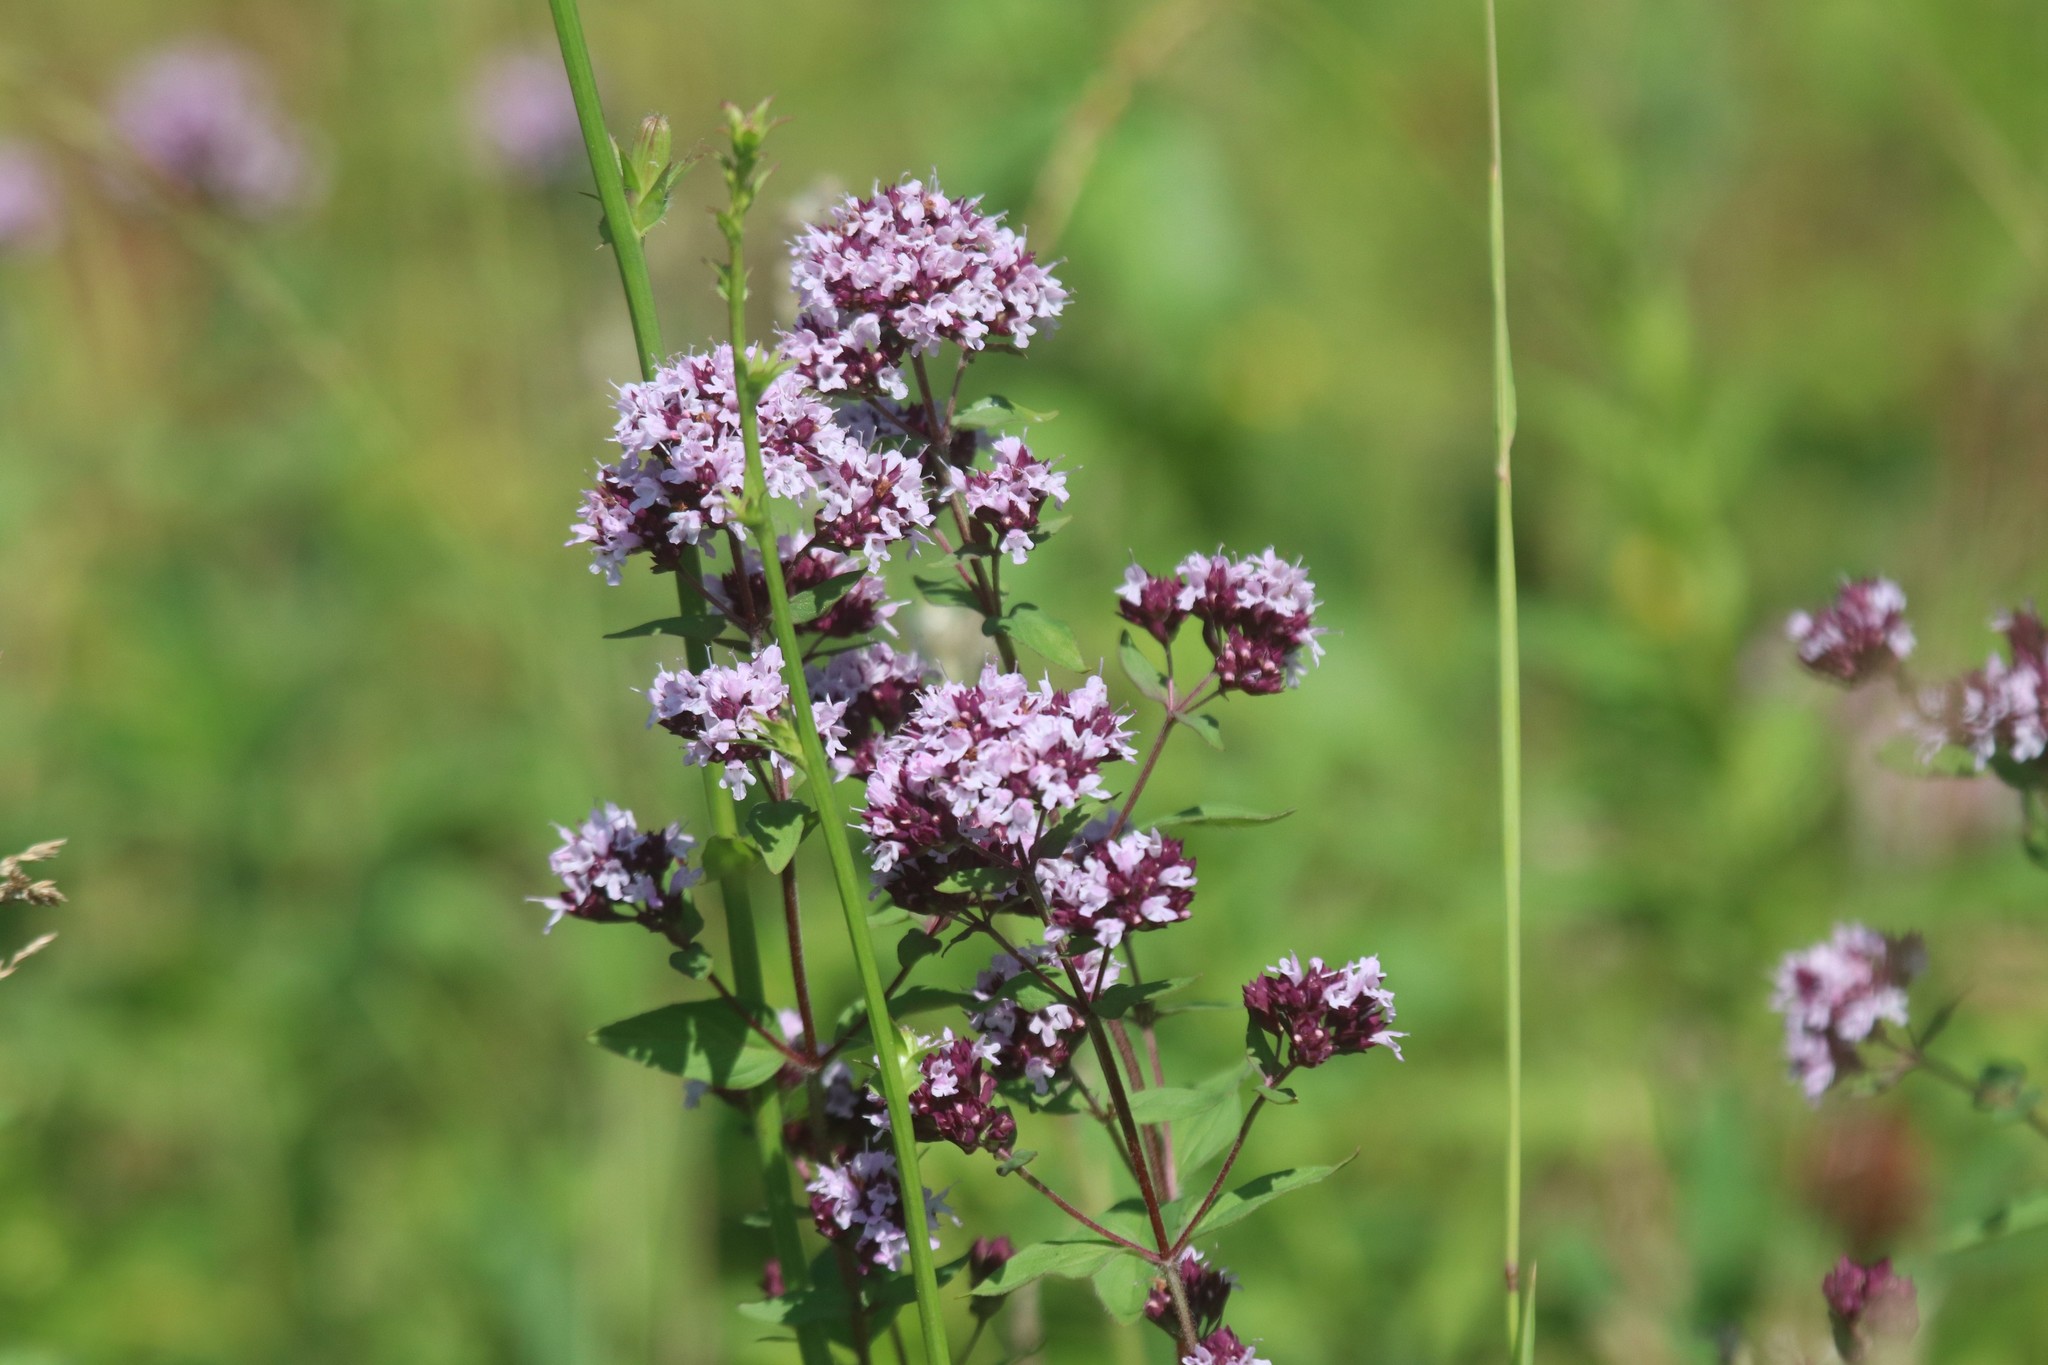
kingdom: Plantae
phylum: Tracheophyta
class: Magnoliopsida
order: Lamiales
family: Lamiaceae
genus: Origanum
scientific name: Origanum vulgare
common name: Wild marjoram
